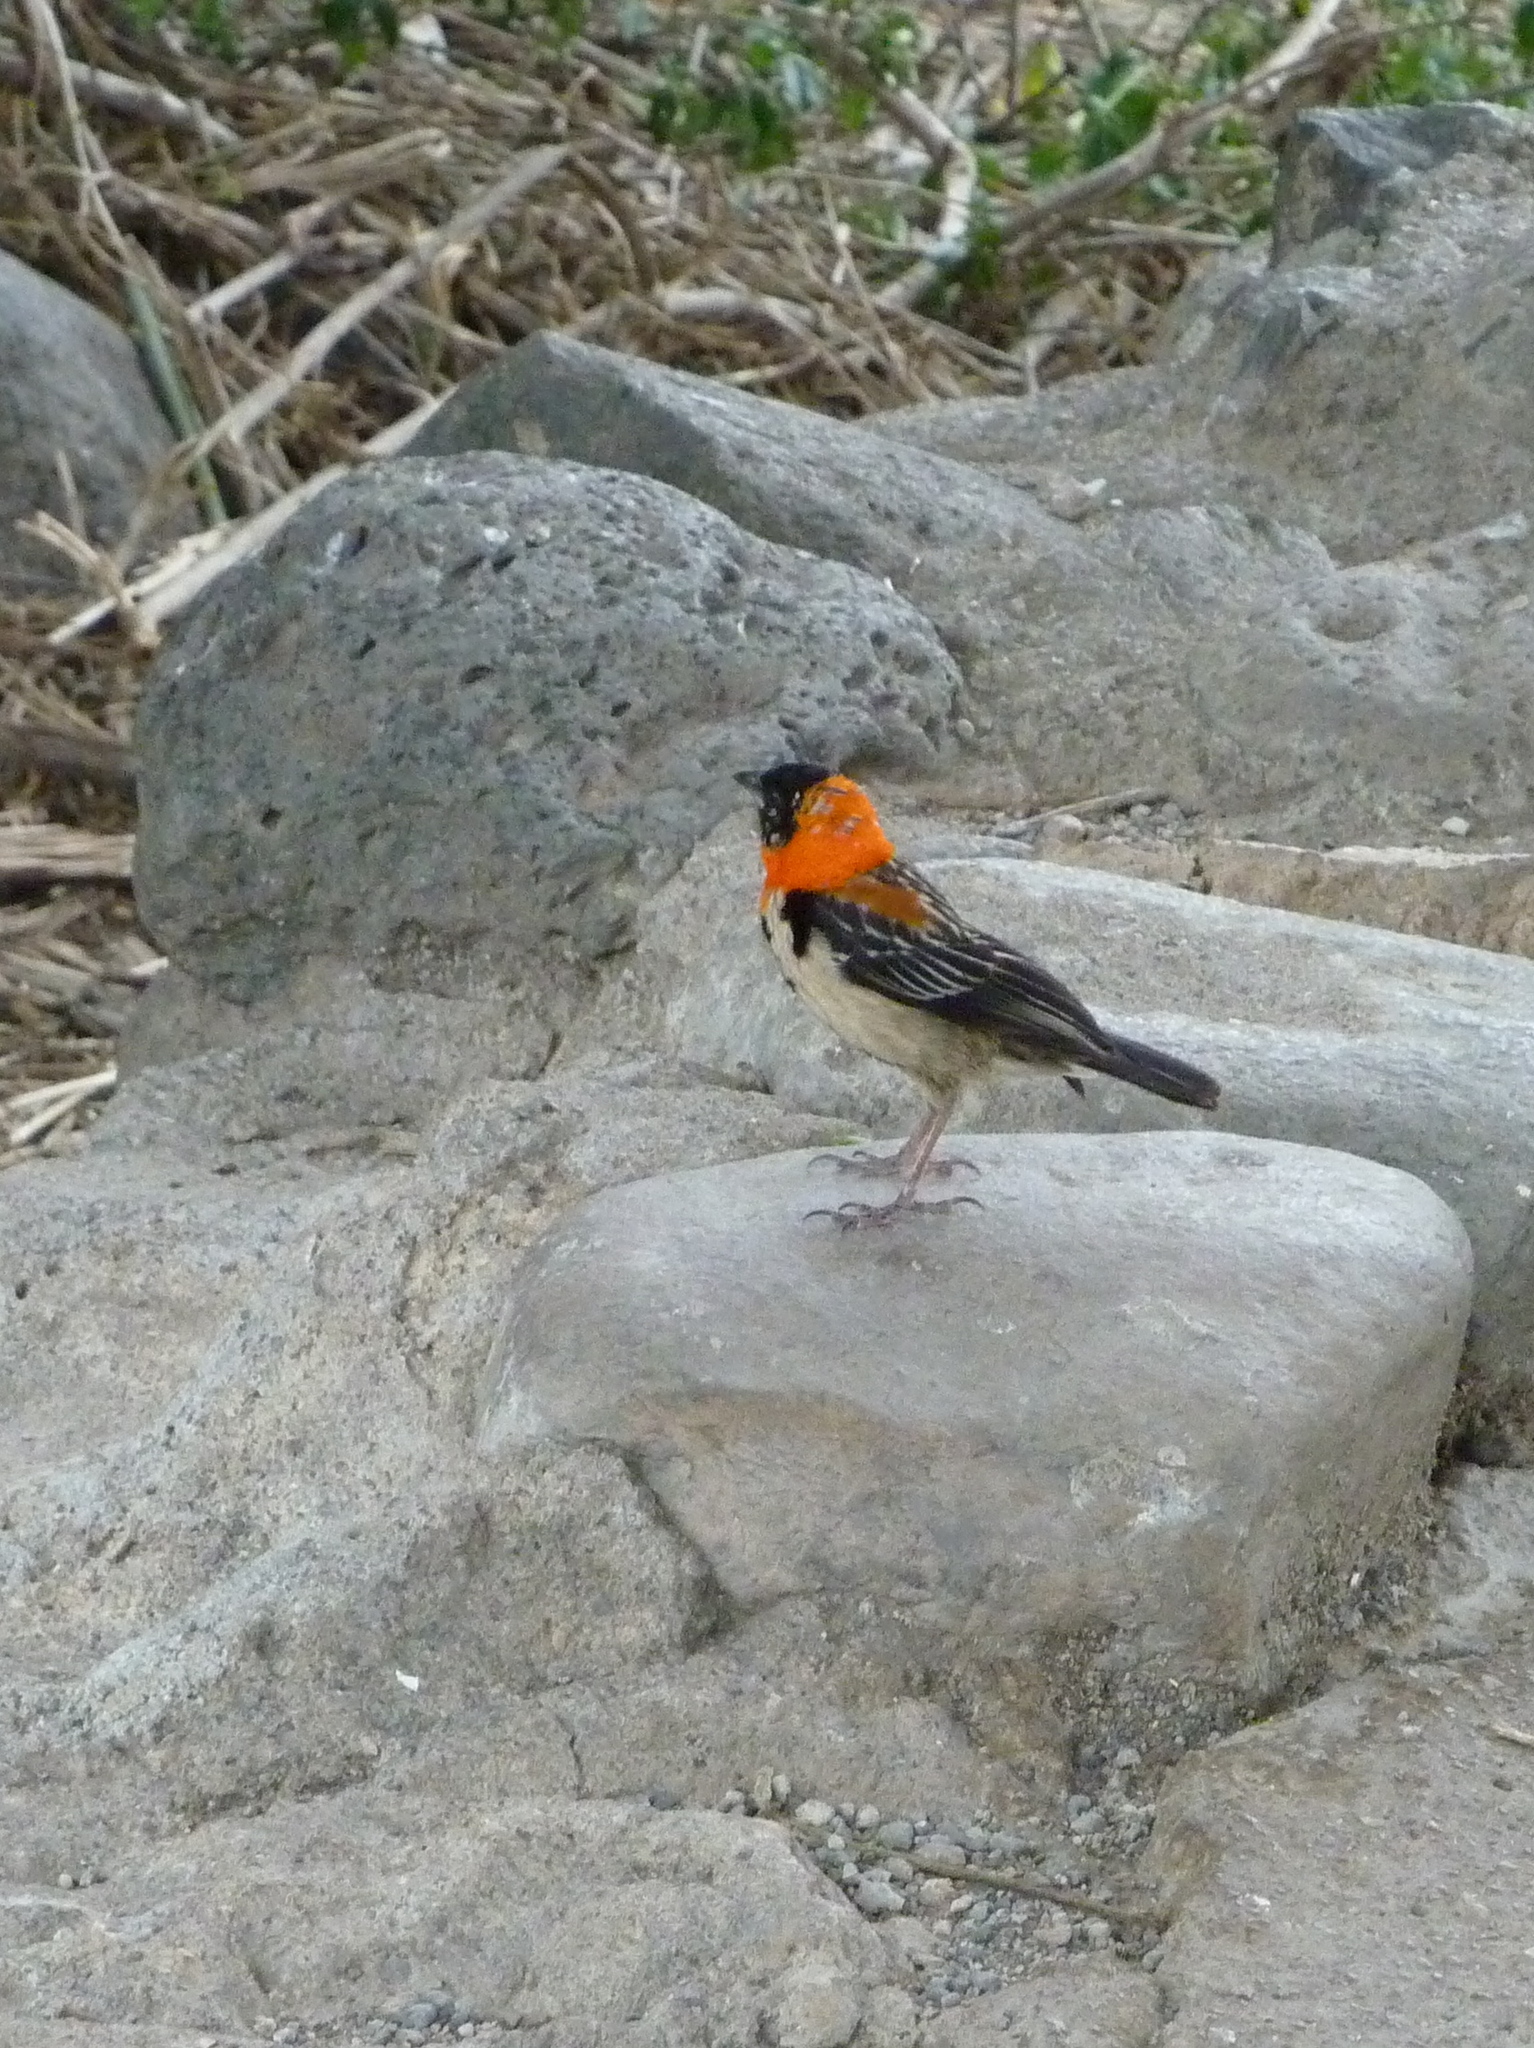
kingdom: Animalia
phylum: Chordata
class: Aves
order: Passeriformes
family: Ploceidae
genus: Euplectes
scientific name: Euplectes gierowii
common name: Black bishop
